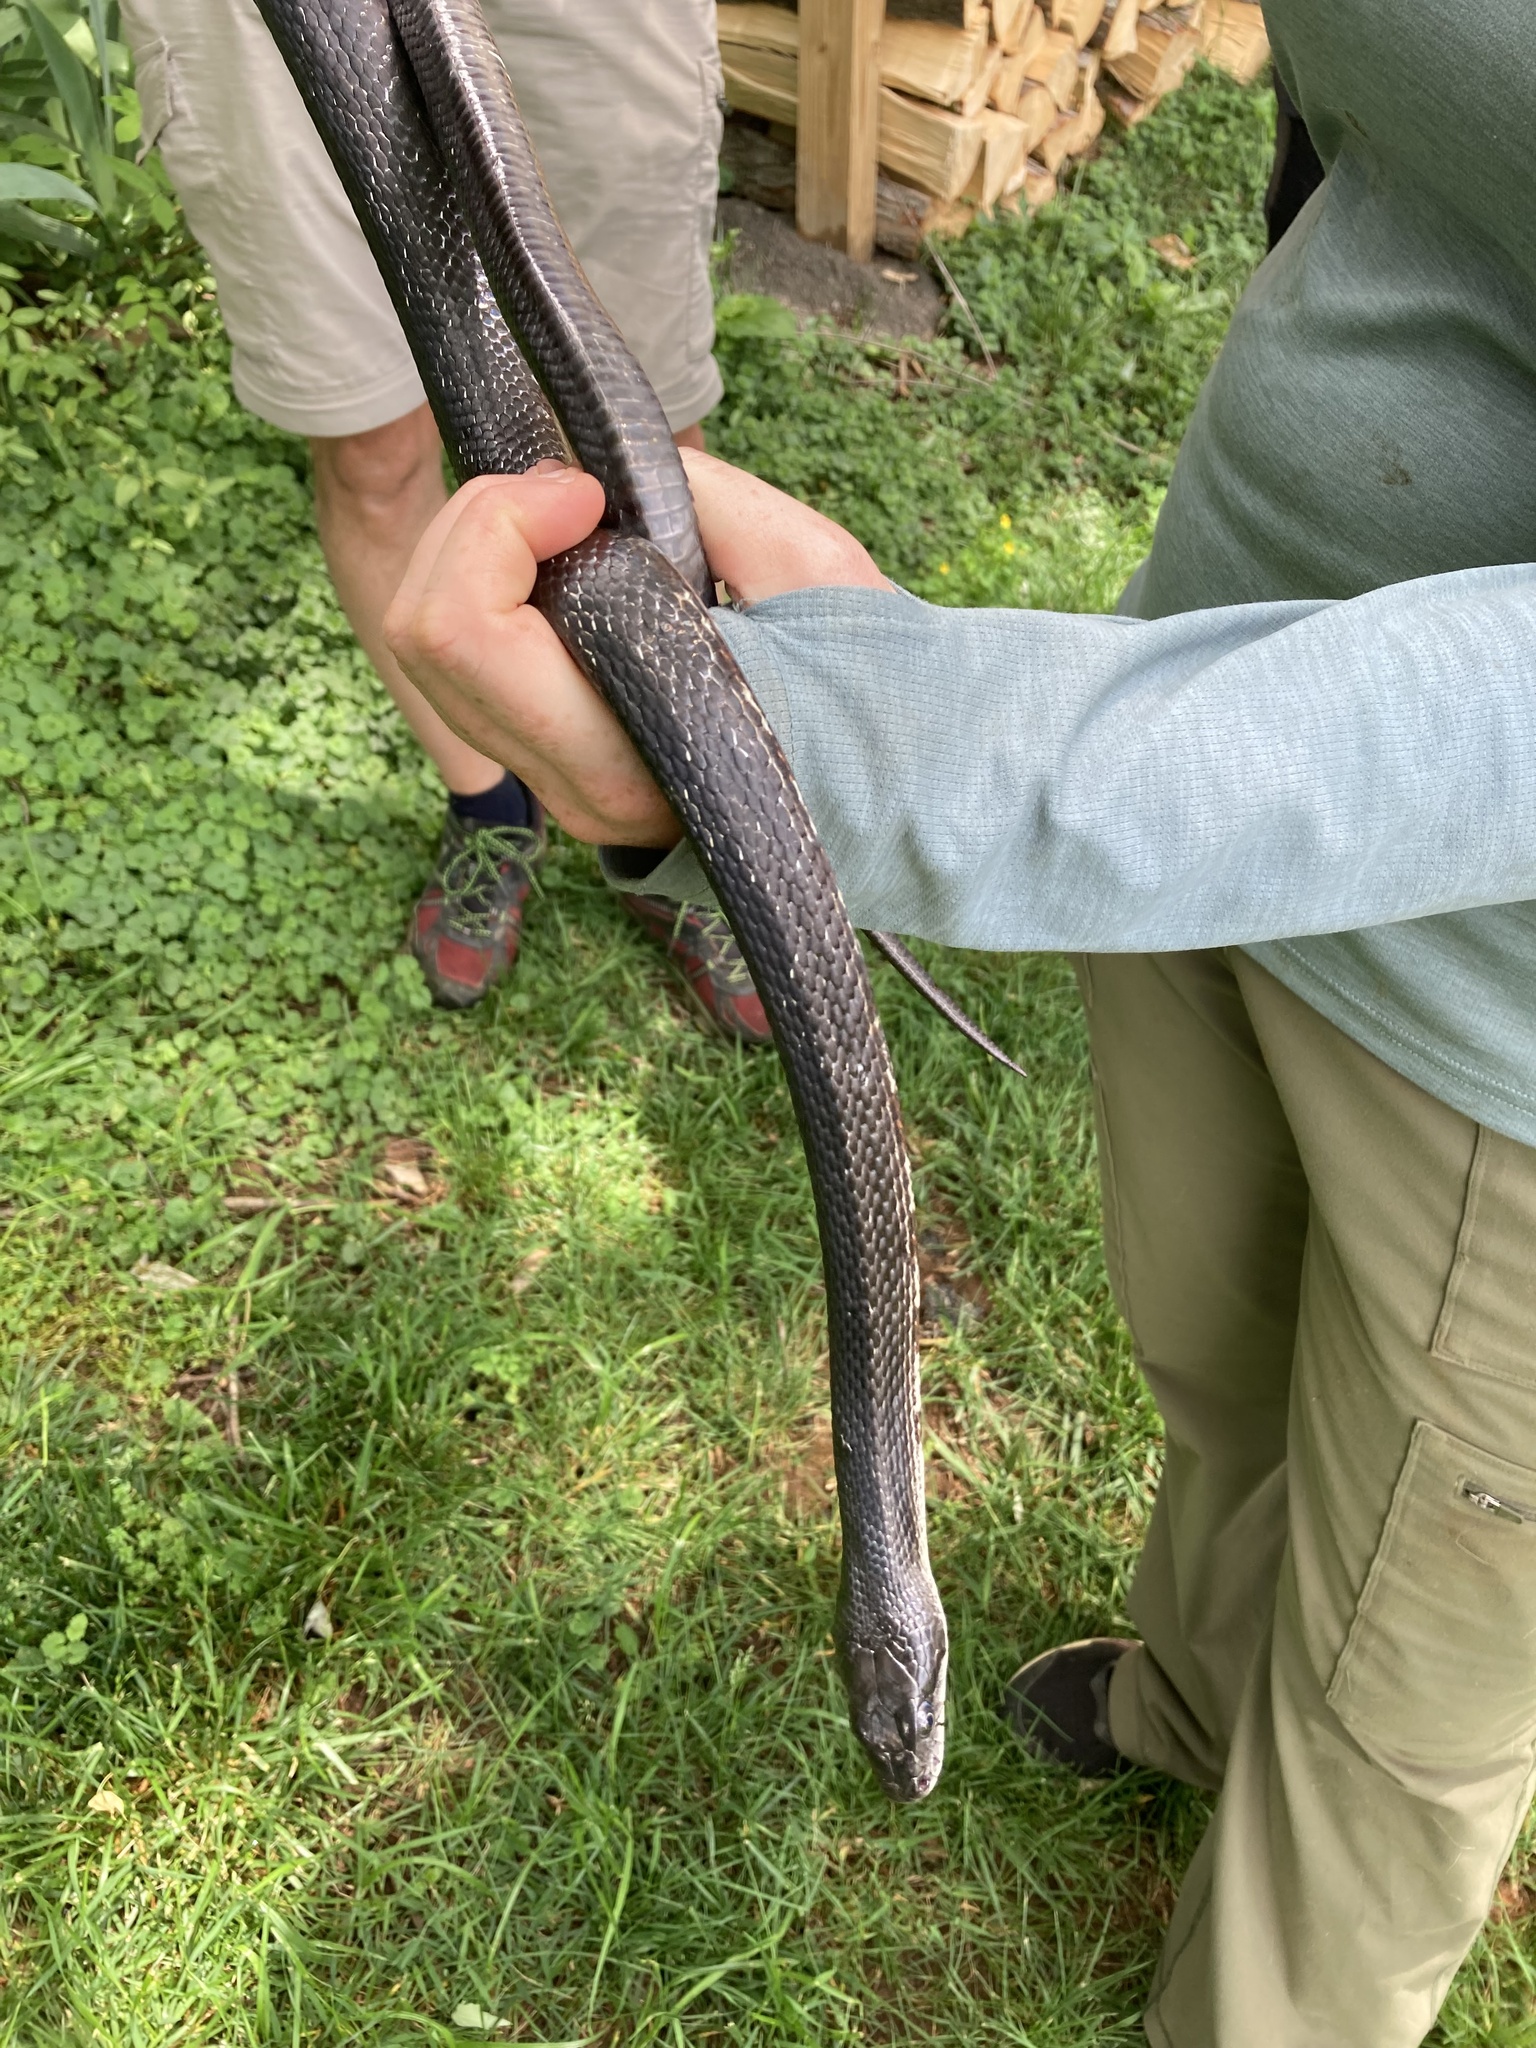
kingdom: Animalia
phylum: Chordata
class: Squamata
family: Colubridae
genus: Pantherophis
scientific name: Pantherophis spiloides
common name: Gray rat snake
